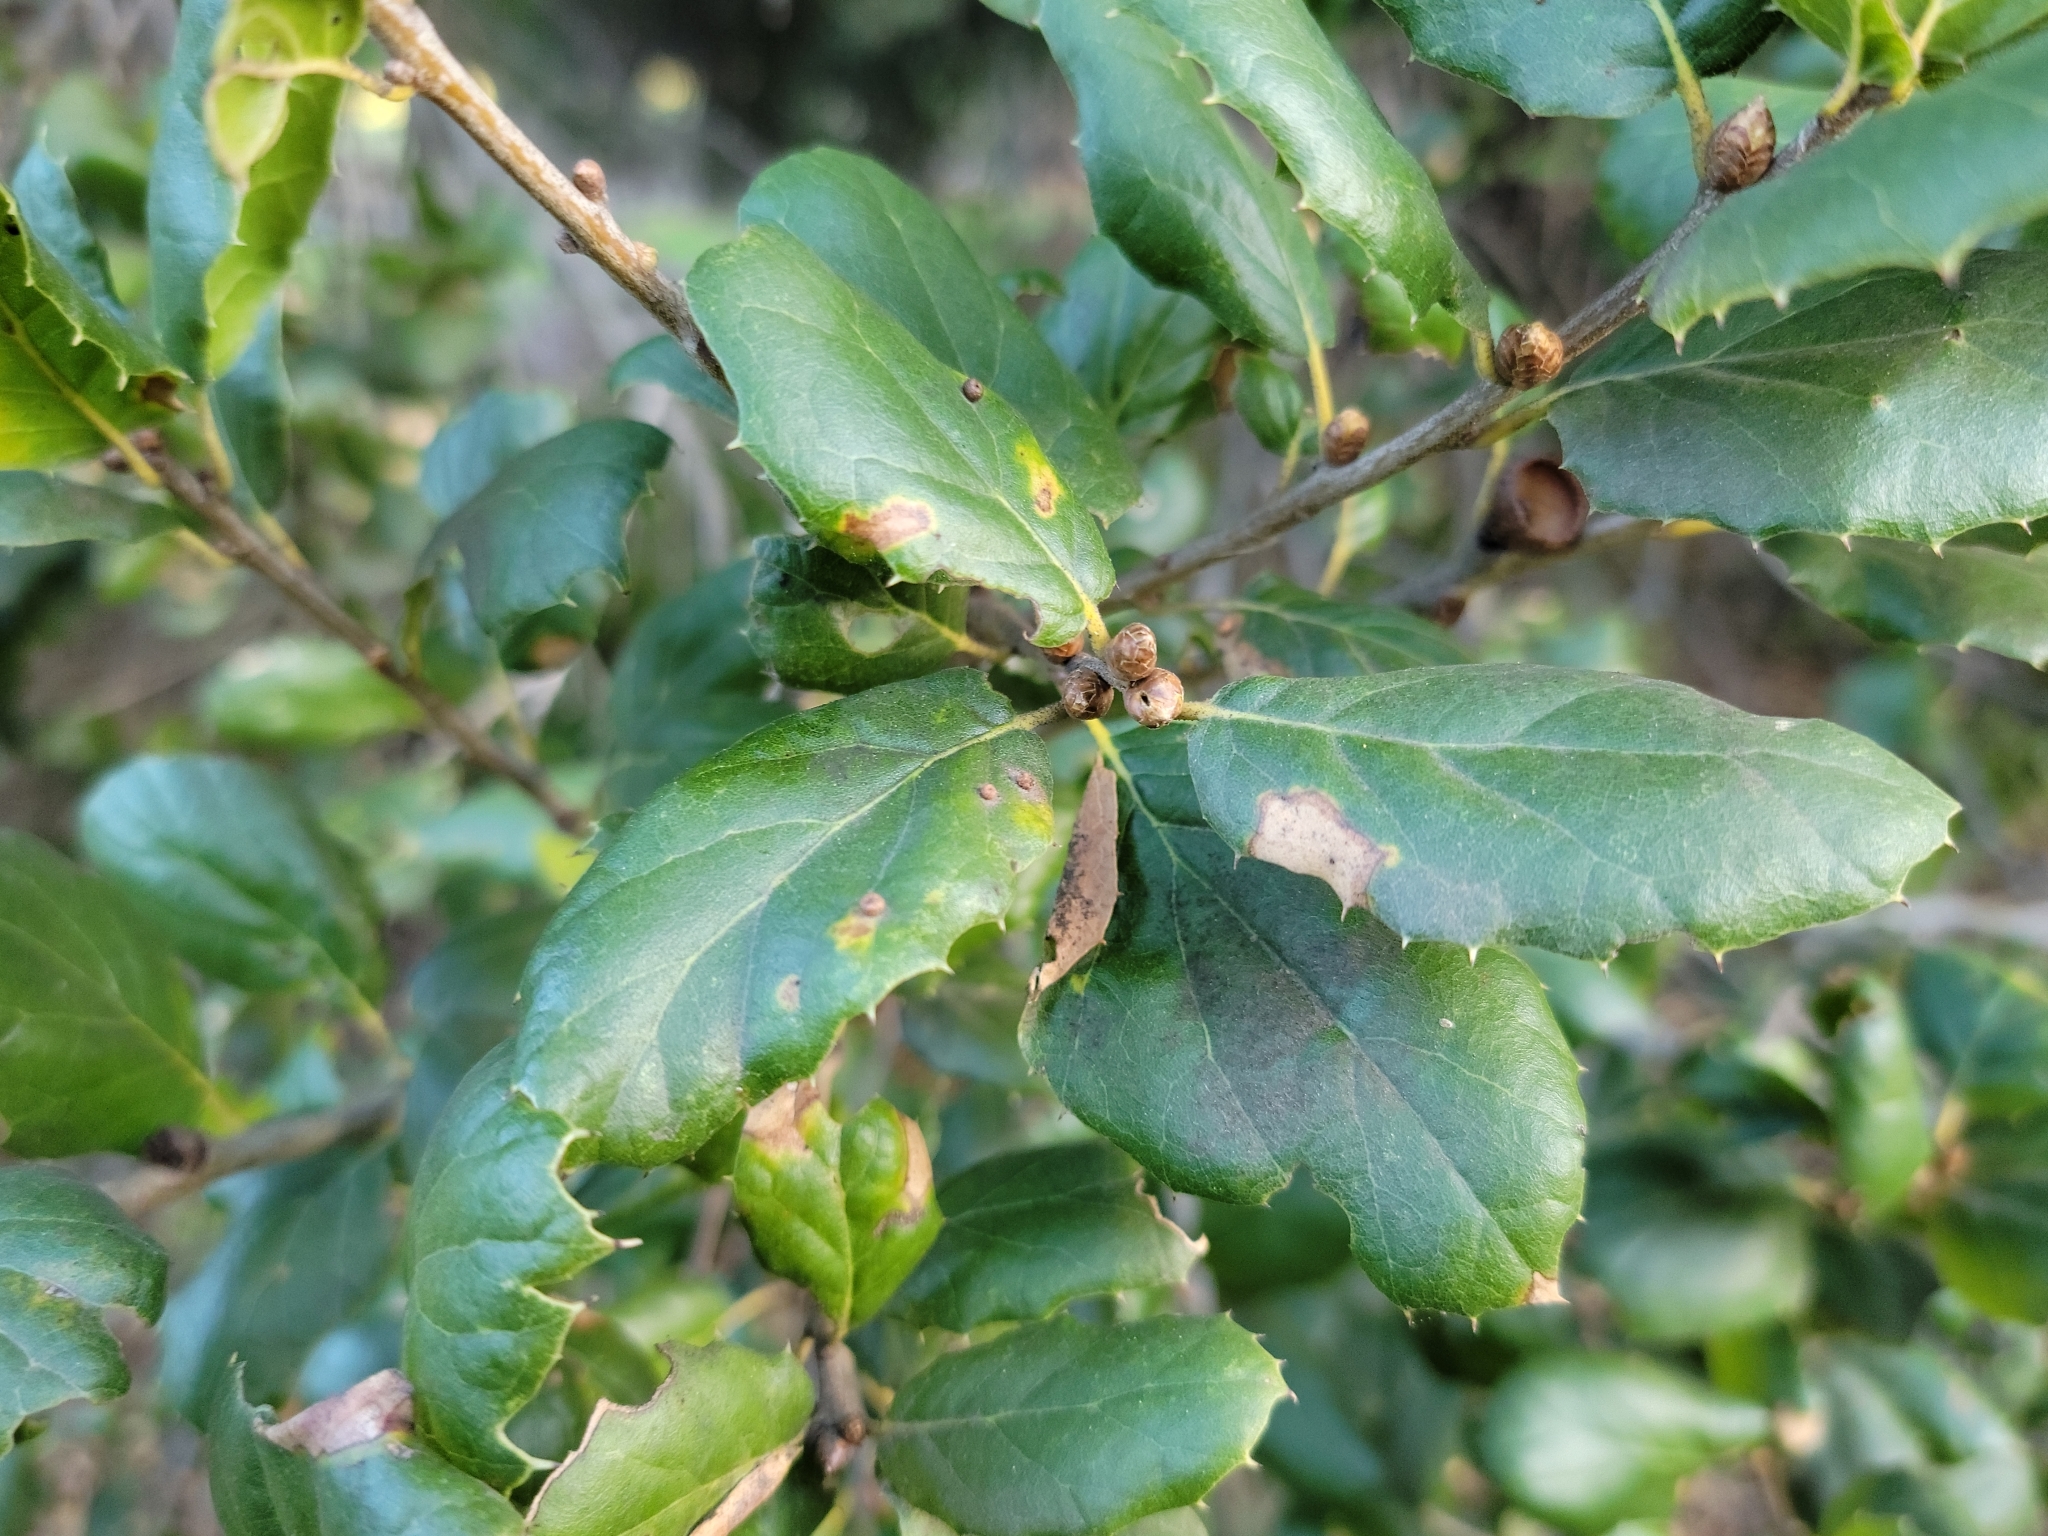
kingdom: Plantae
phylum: Tracheophyta
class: Magnoliopsida
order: Fagales
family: Fagaceae
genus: Quercus
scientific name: Quercus agrifolia
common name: California live oak
